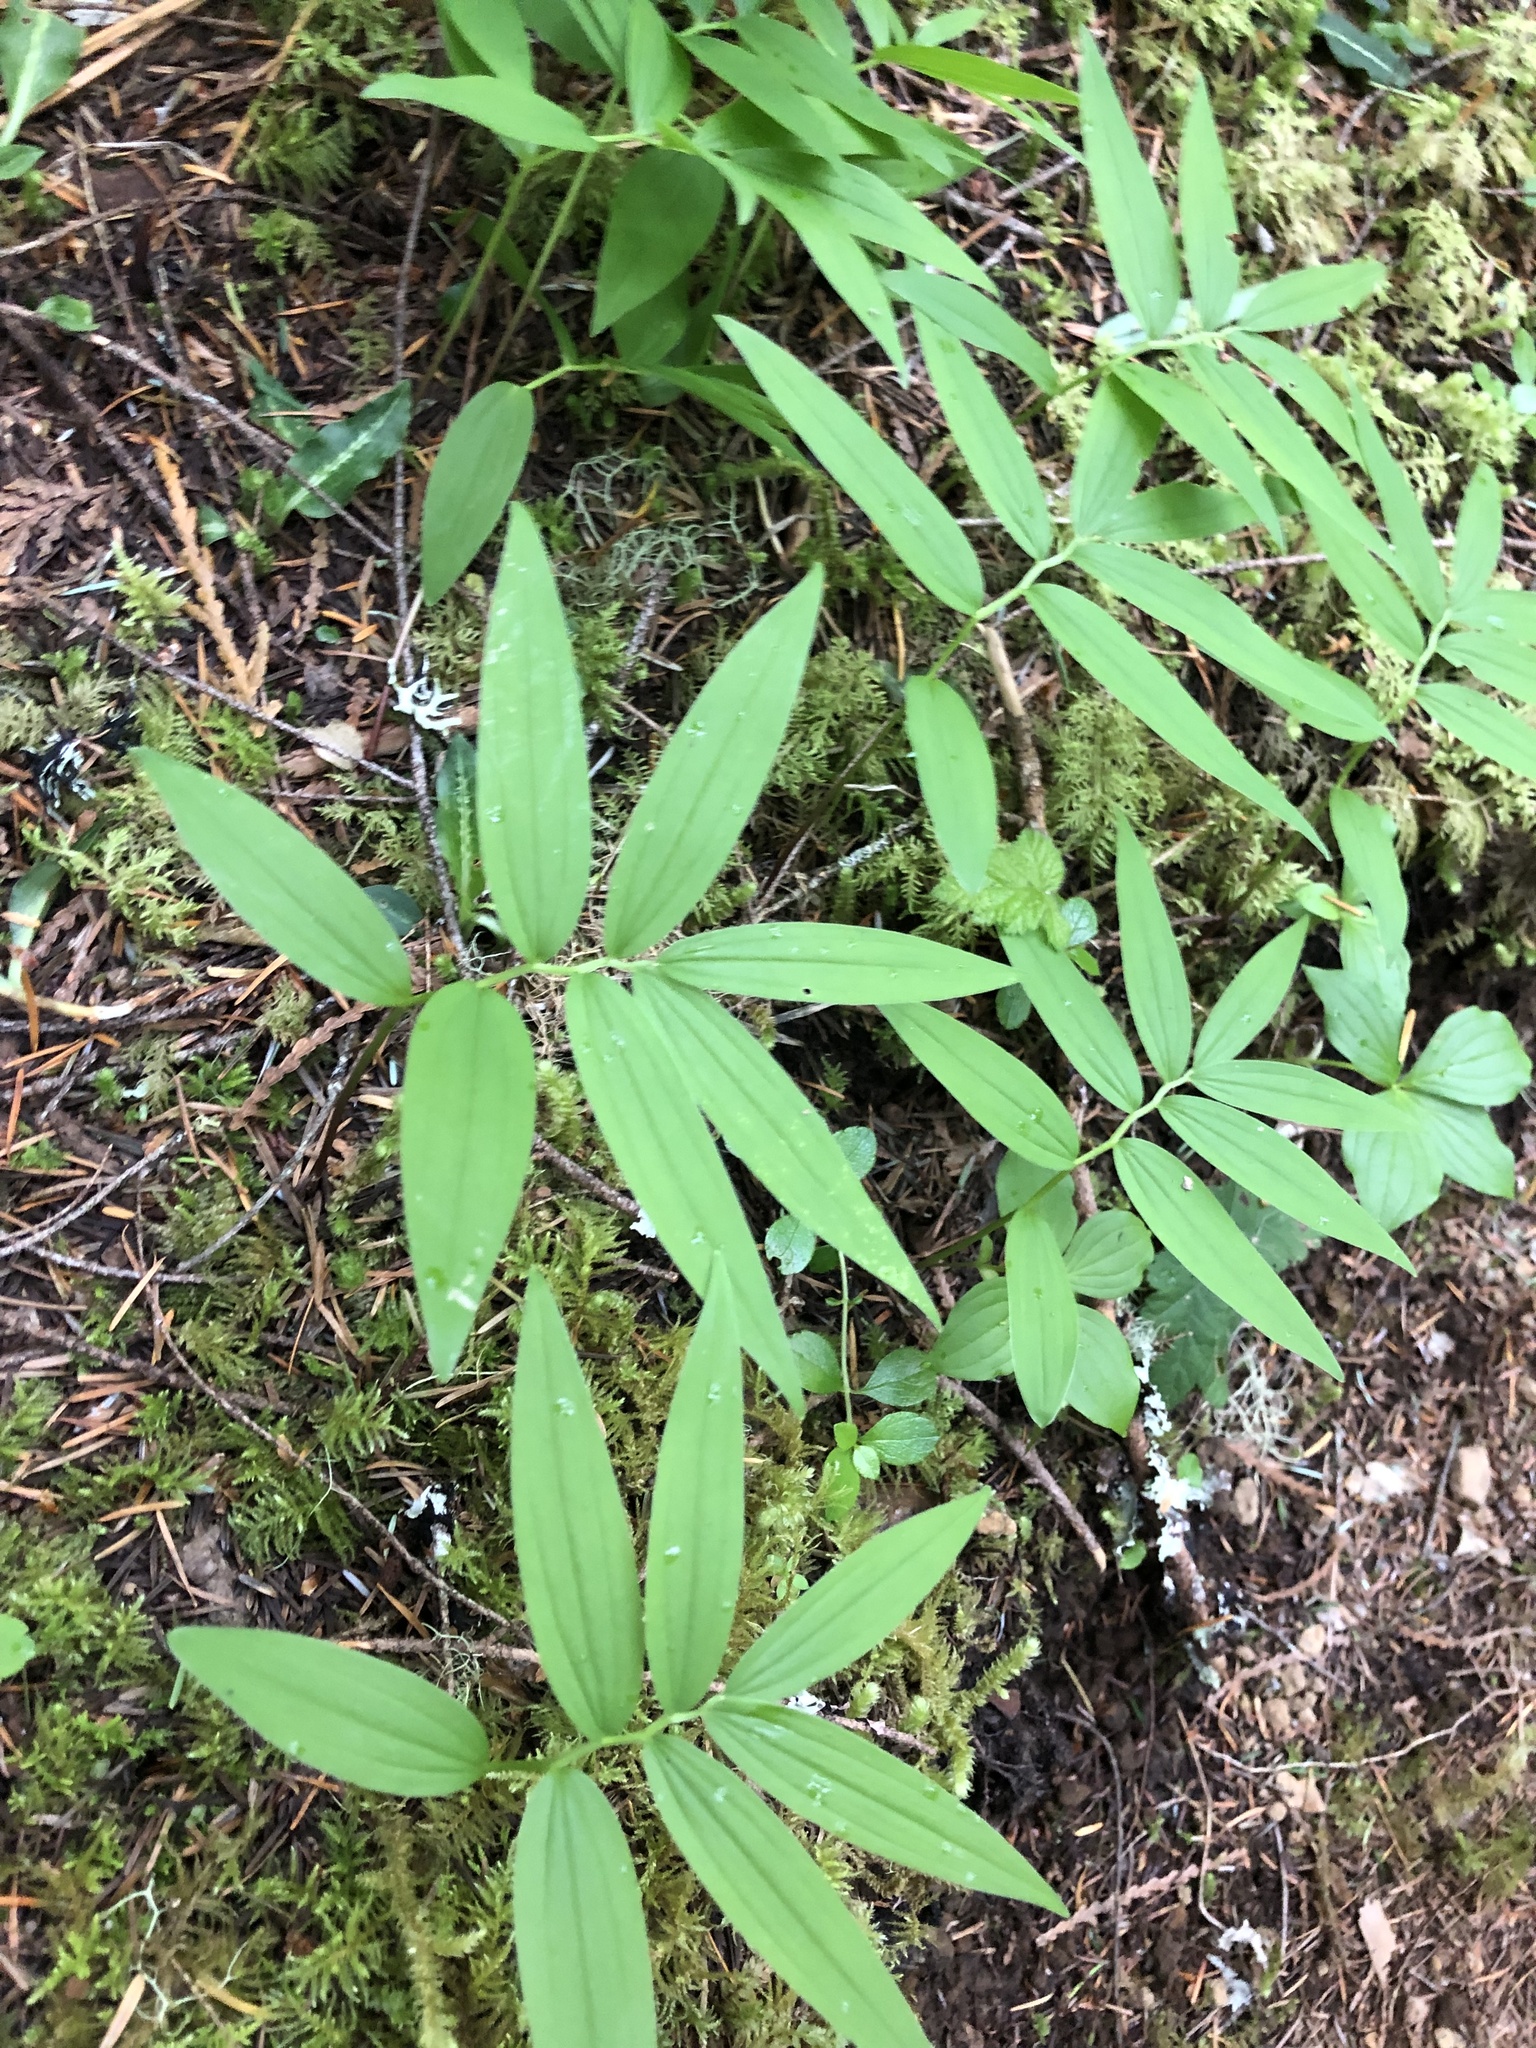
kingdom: Plantae
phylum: Tracheophyta
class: Liliopsida
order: Asparagales
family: Asparagaceae
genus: Maianthemum
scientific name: Maianthemum stellatum
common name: Little false solomon's seal
